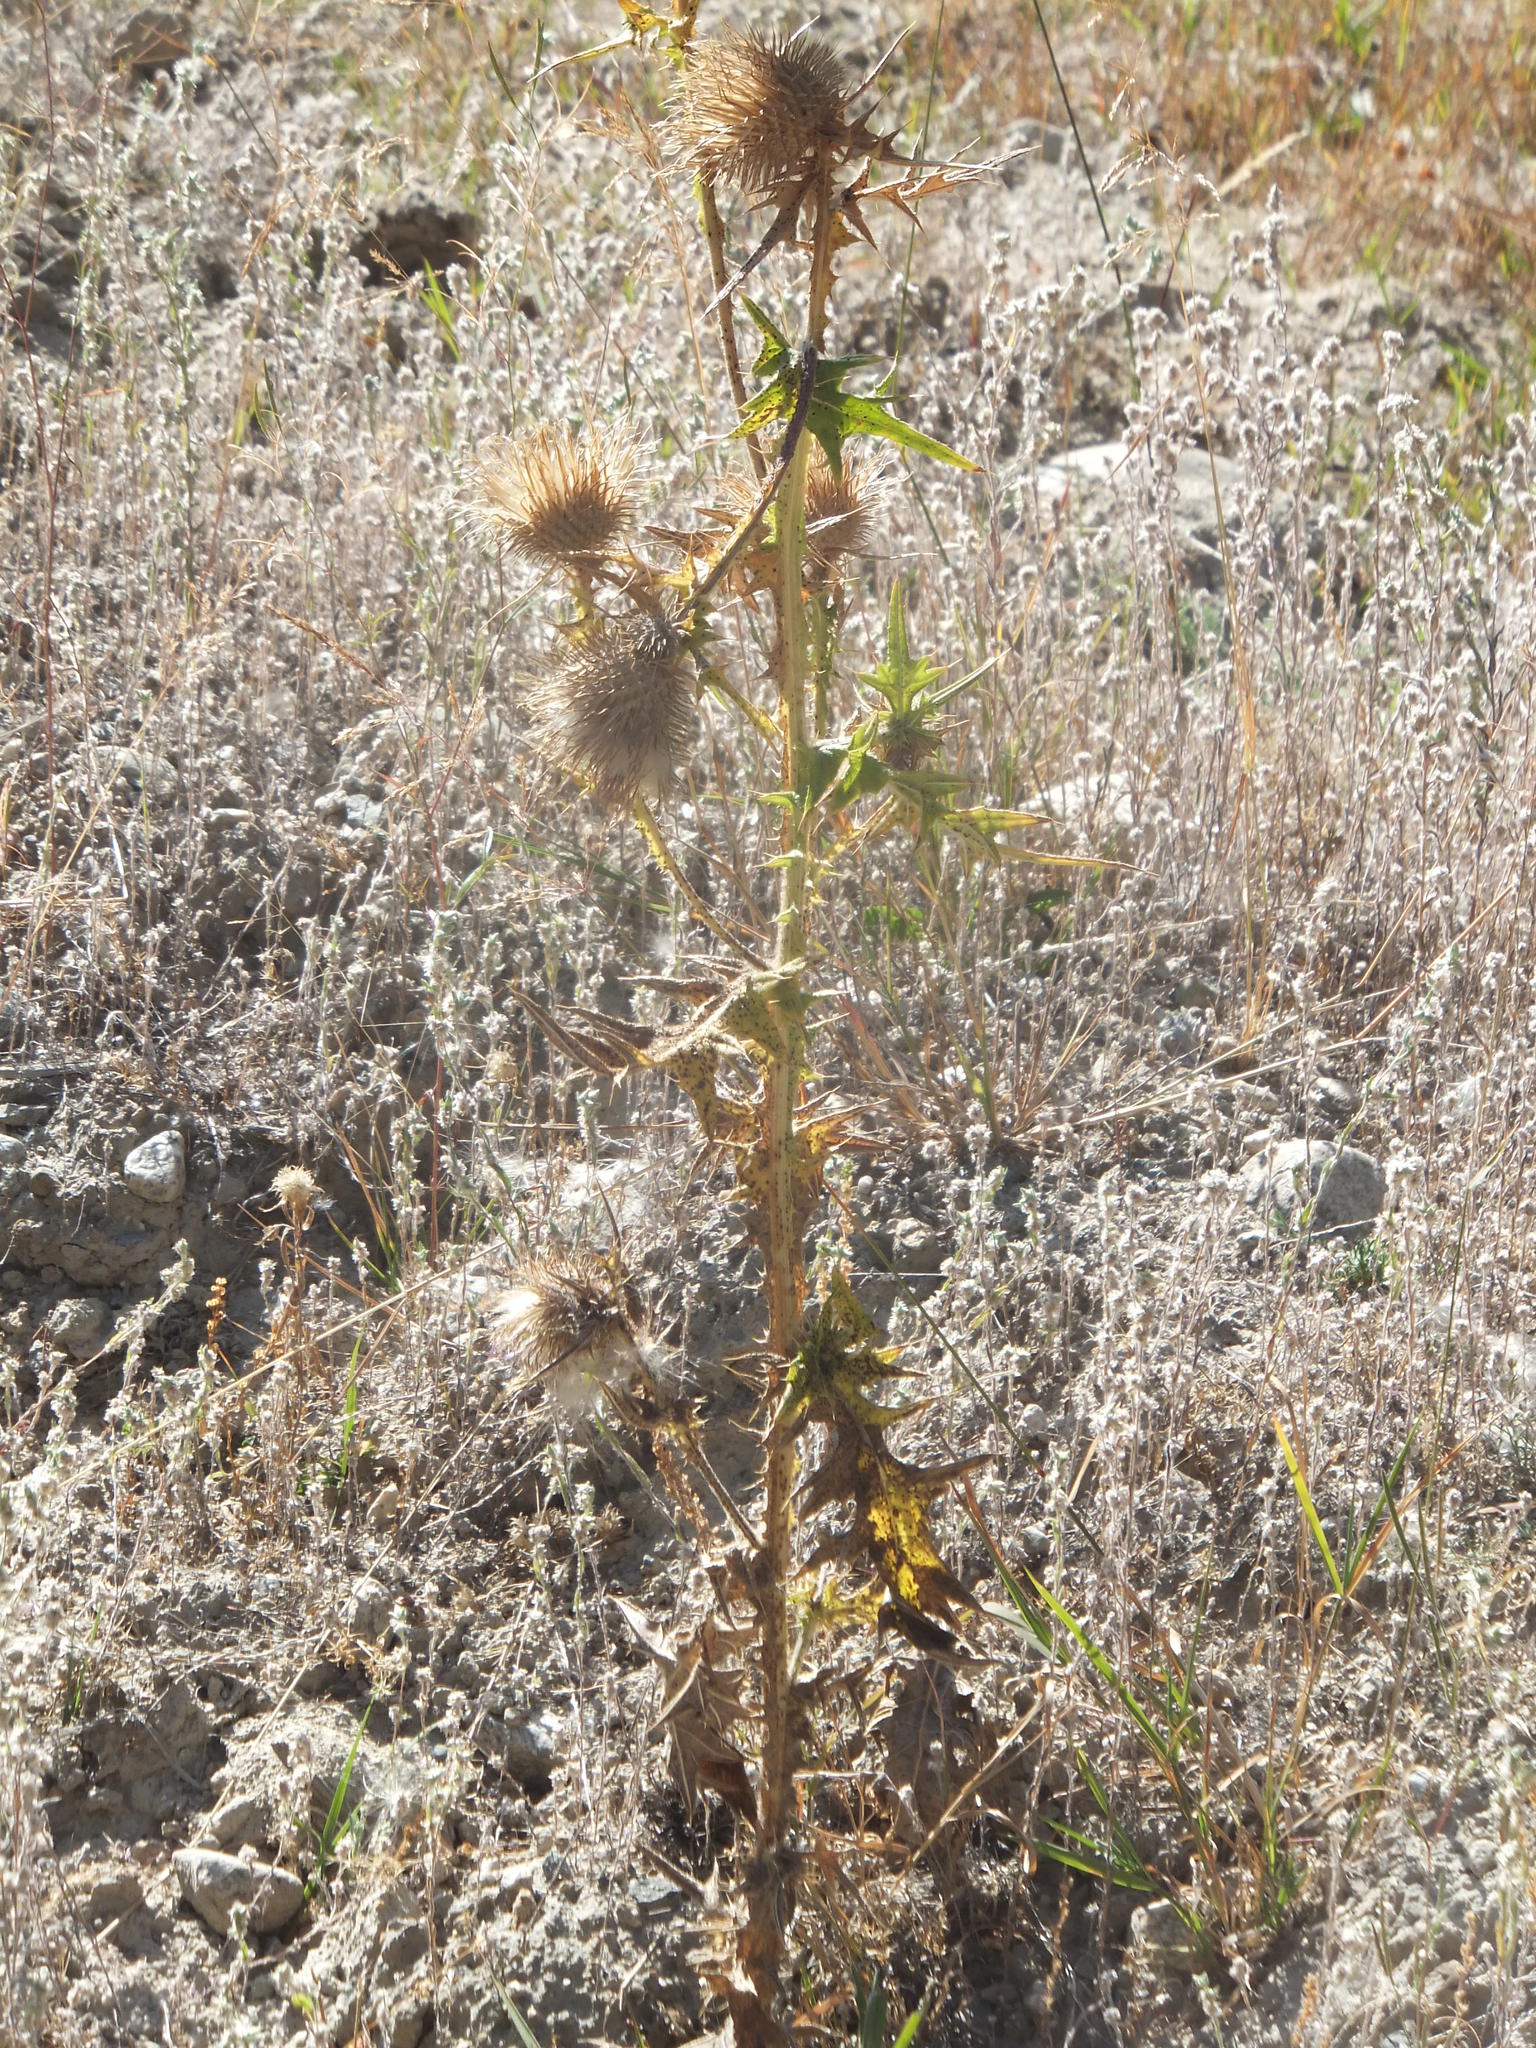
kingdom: Plantae
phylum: Tracheophyta
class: Magnoliopsida
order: Asterales
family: Asteraceae
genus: Cirsium
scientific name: Cirsium vulgare
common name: Bull thistle
